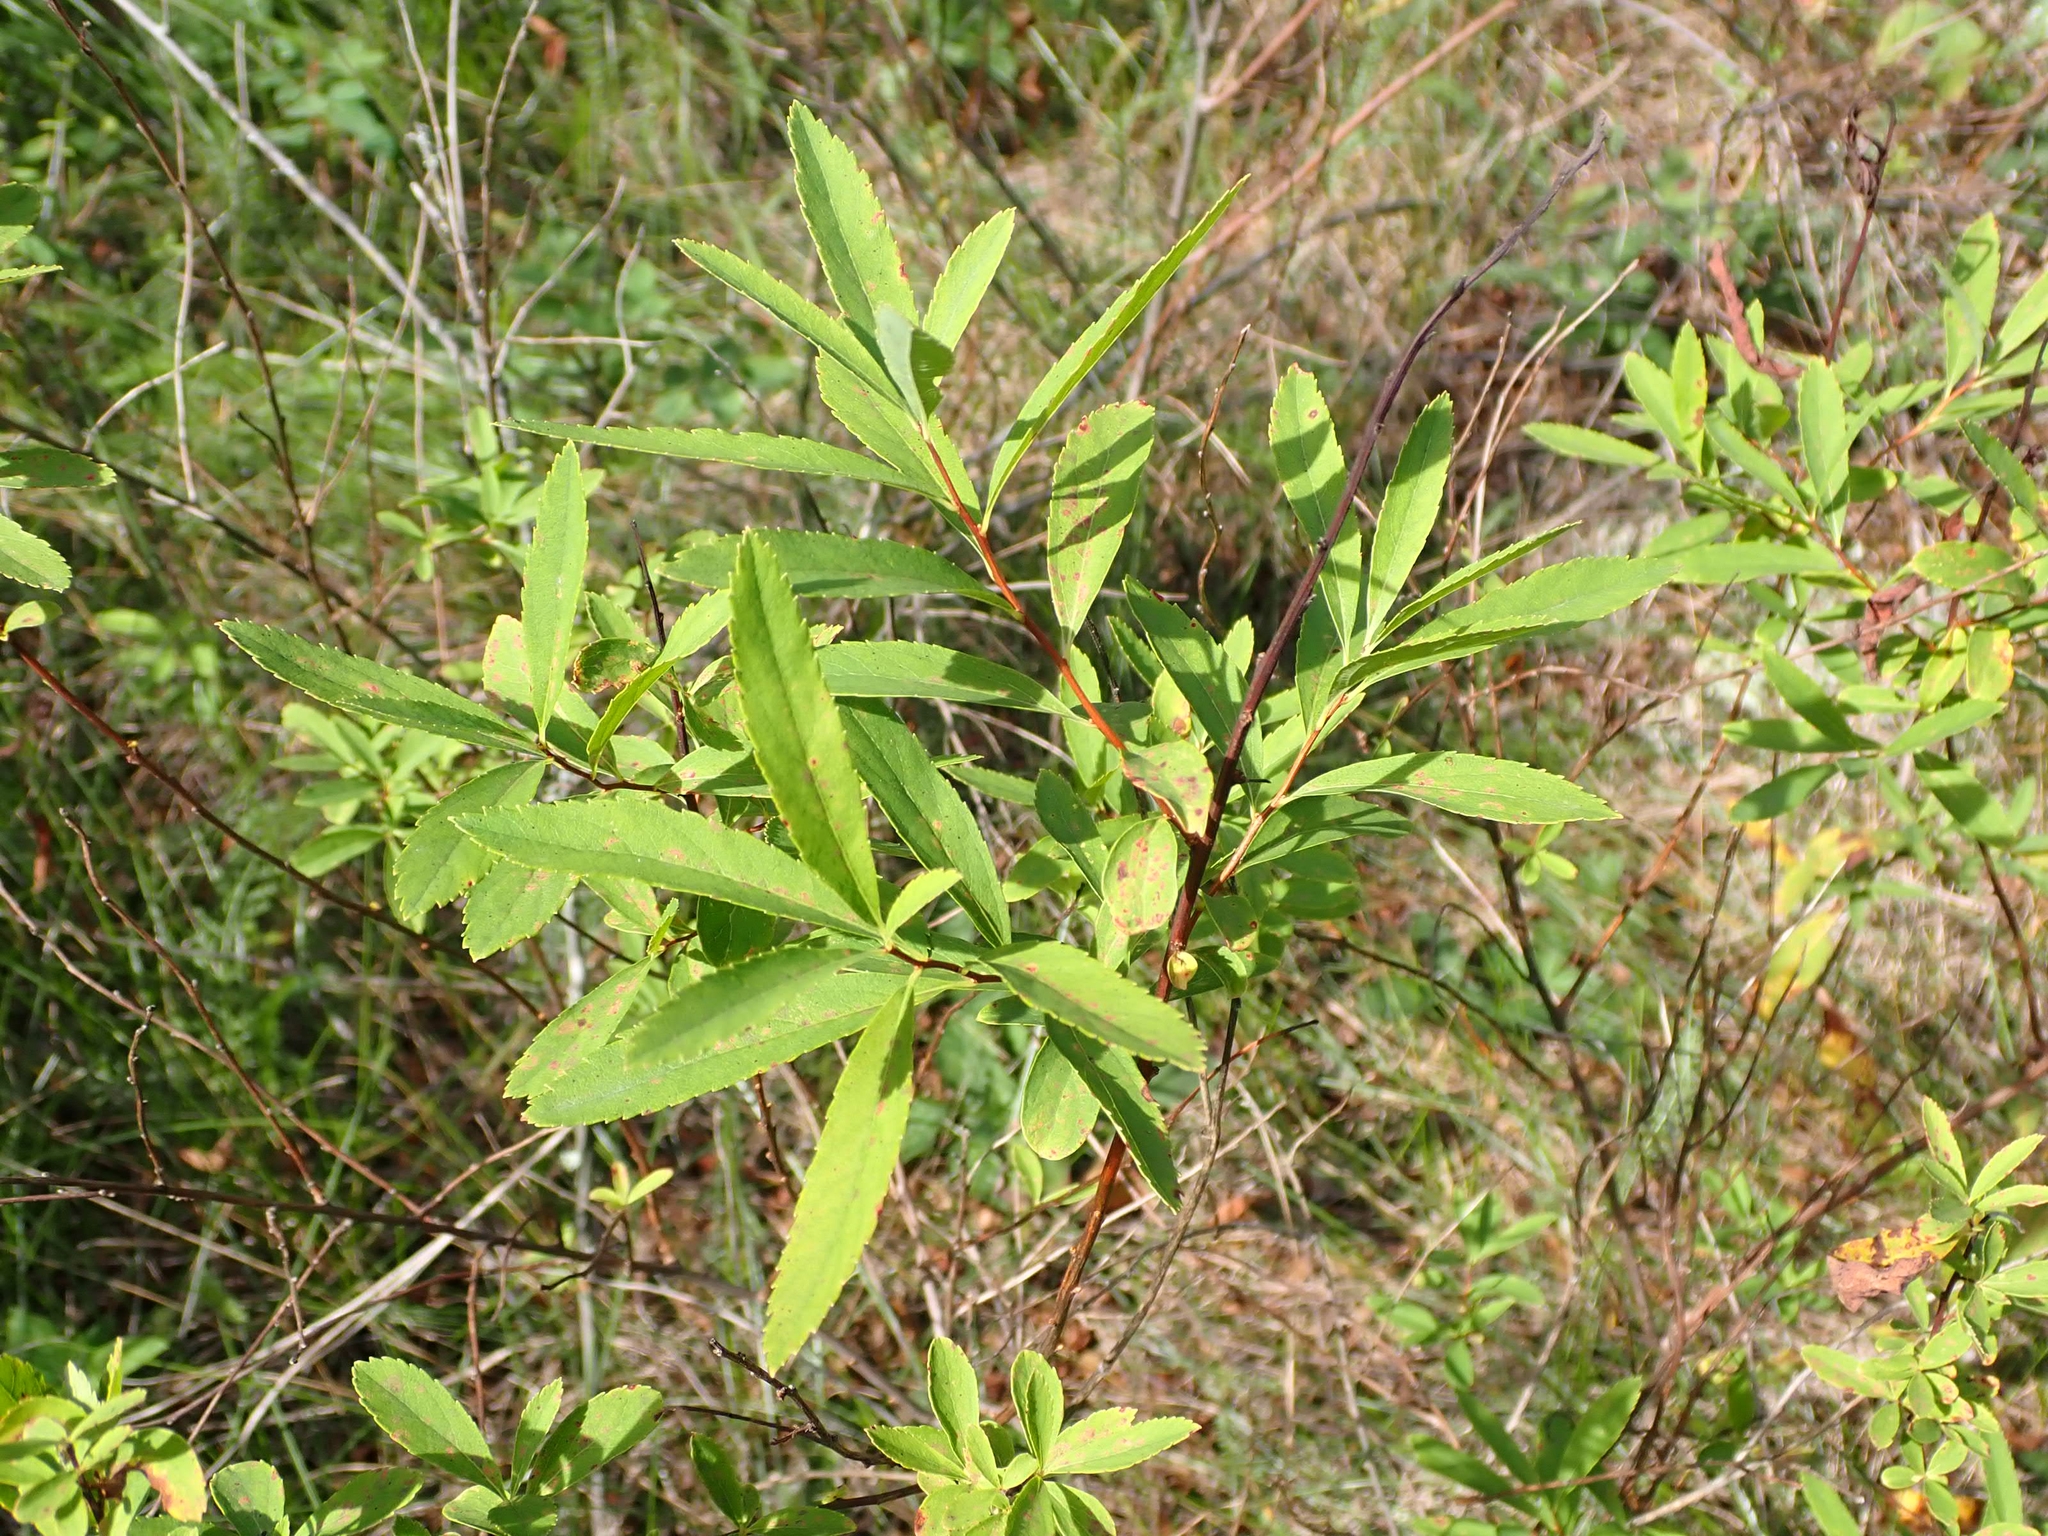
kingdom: Plantae
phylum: Tracheophyta
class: Magnoliopsida
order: Rosales
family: Rosaceae
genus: Spiraea
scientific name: Spiraea alba
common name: Pale bridewort
